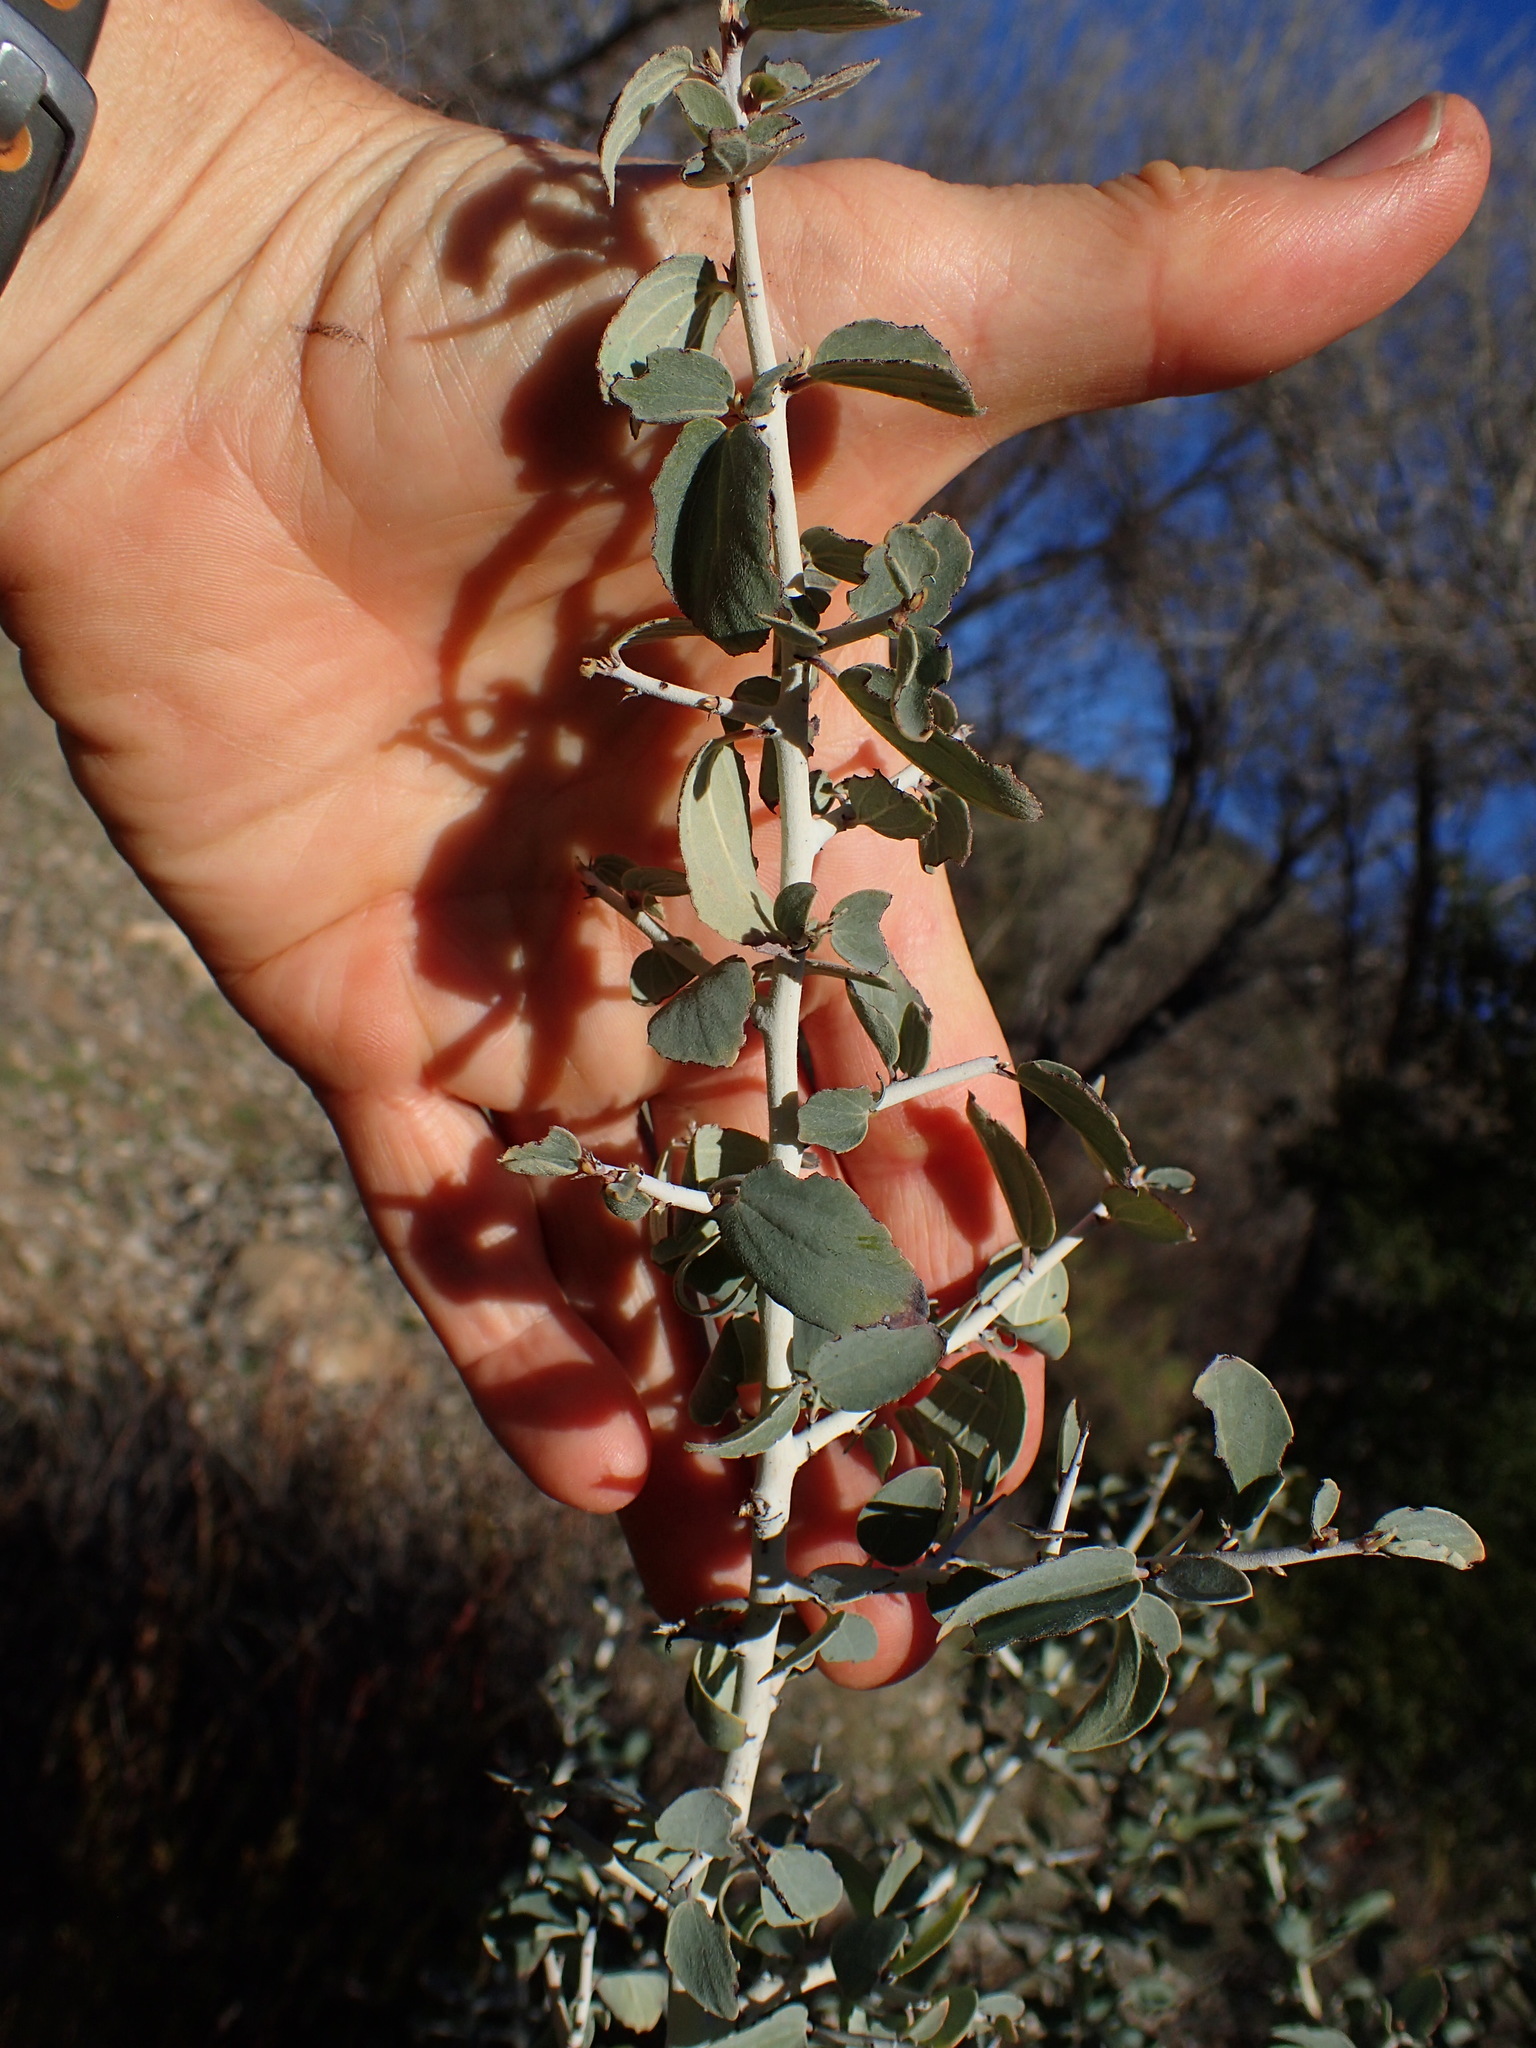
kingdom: Plantae
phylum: Tracheophyta
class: Magnoliopsida
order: Rosales
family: Rhamnaceae
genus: Ceanothus
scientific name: Ceanothus leucodermis
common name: Chaparral whitethorn
